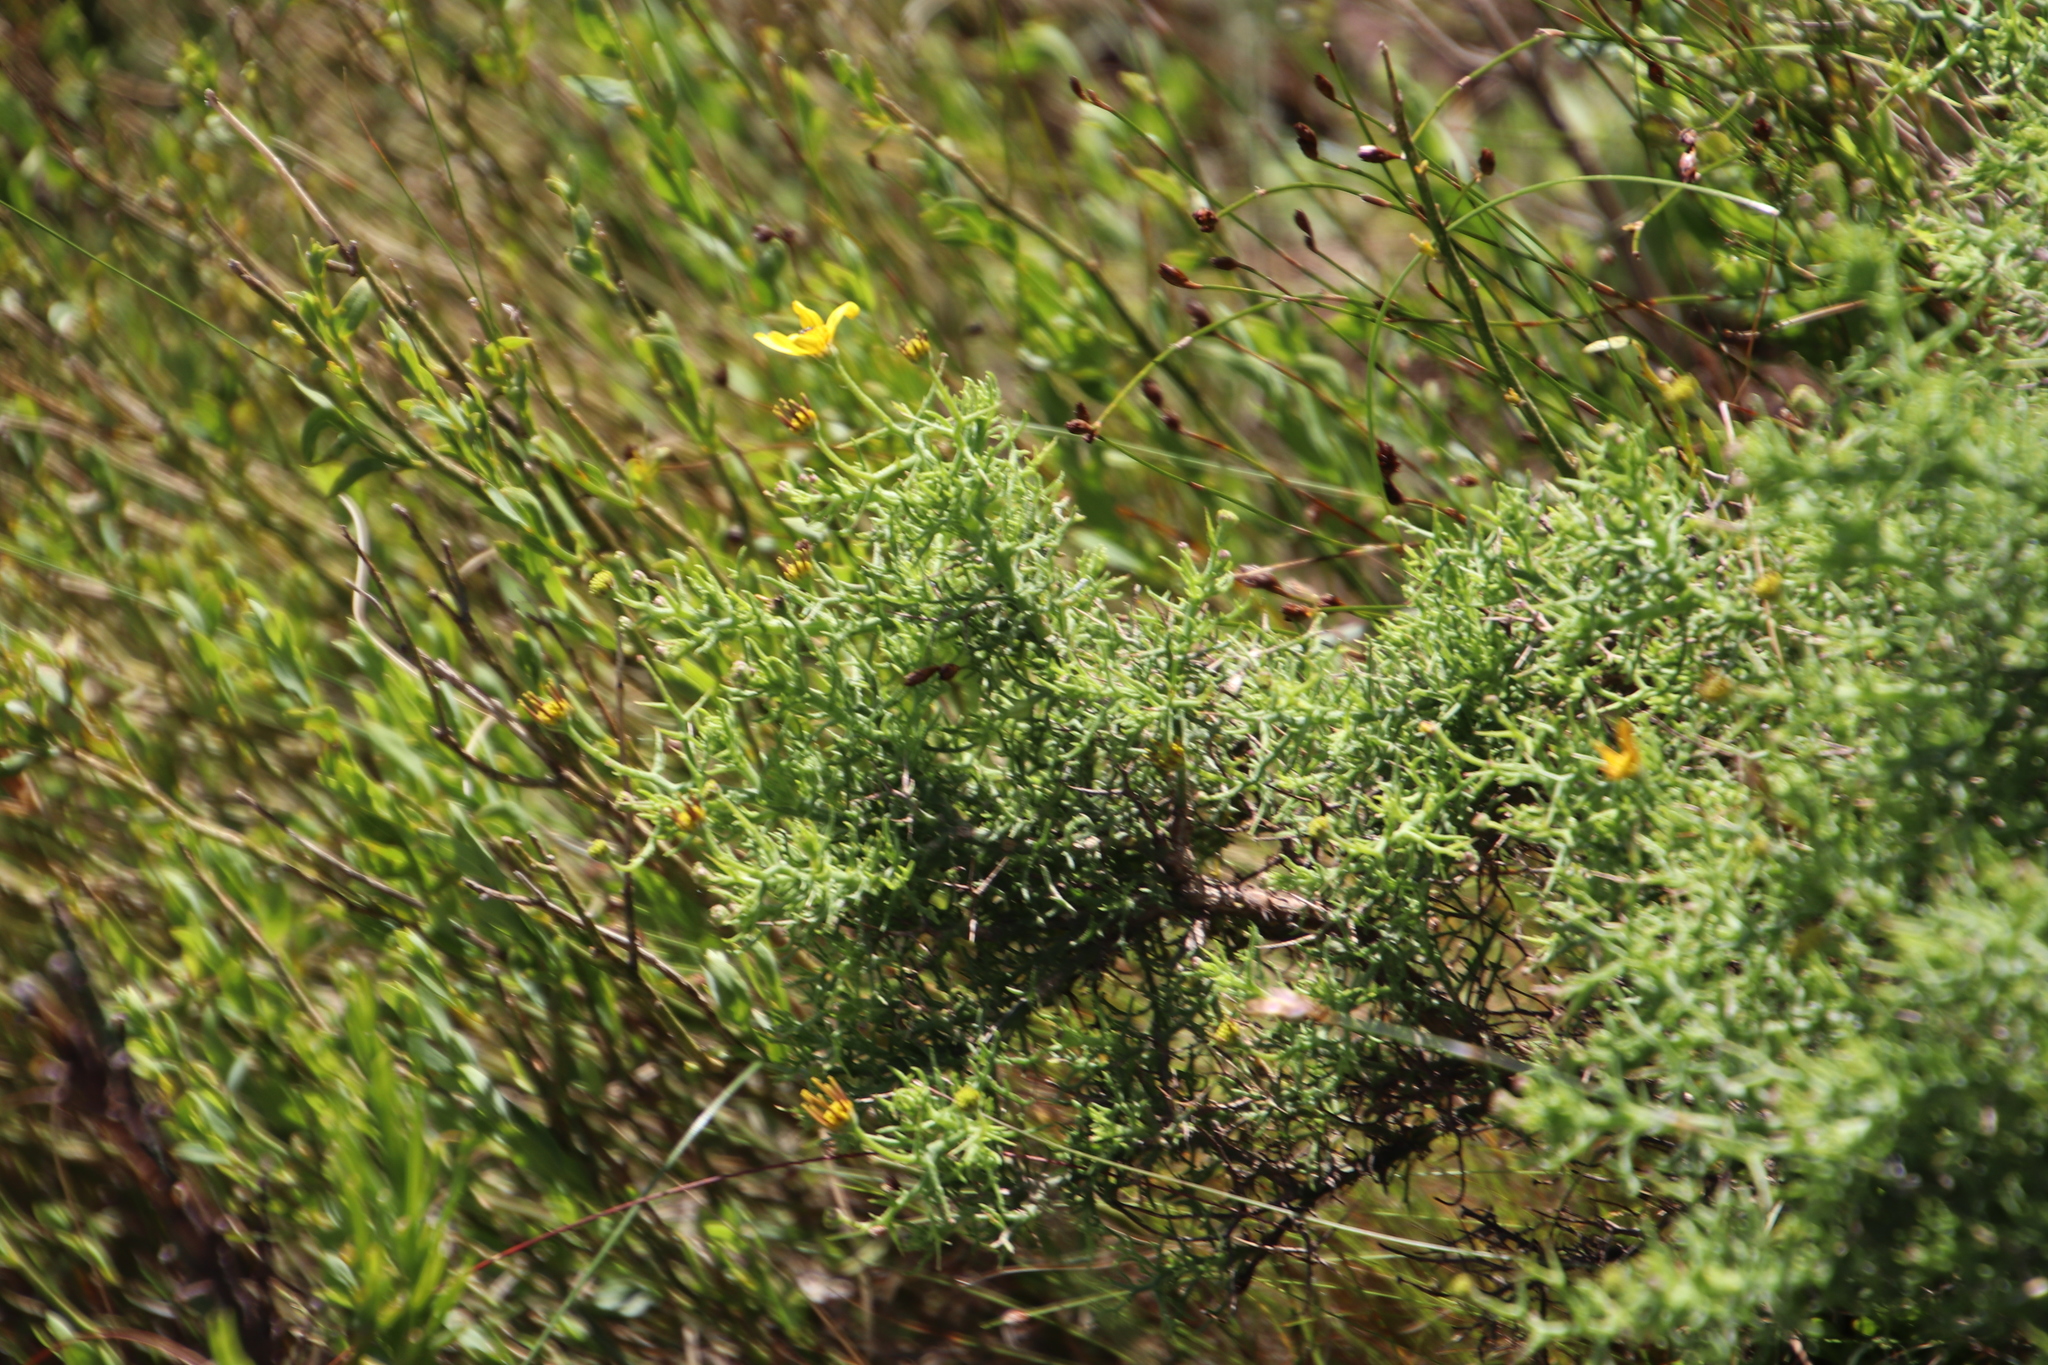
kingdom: Plantae
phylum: Tracheophyta
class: Magnoliopsida
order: Asterales
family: Asteraceae
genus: Osteospermum
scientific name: Osteospermum spinosum
